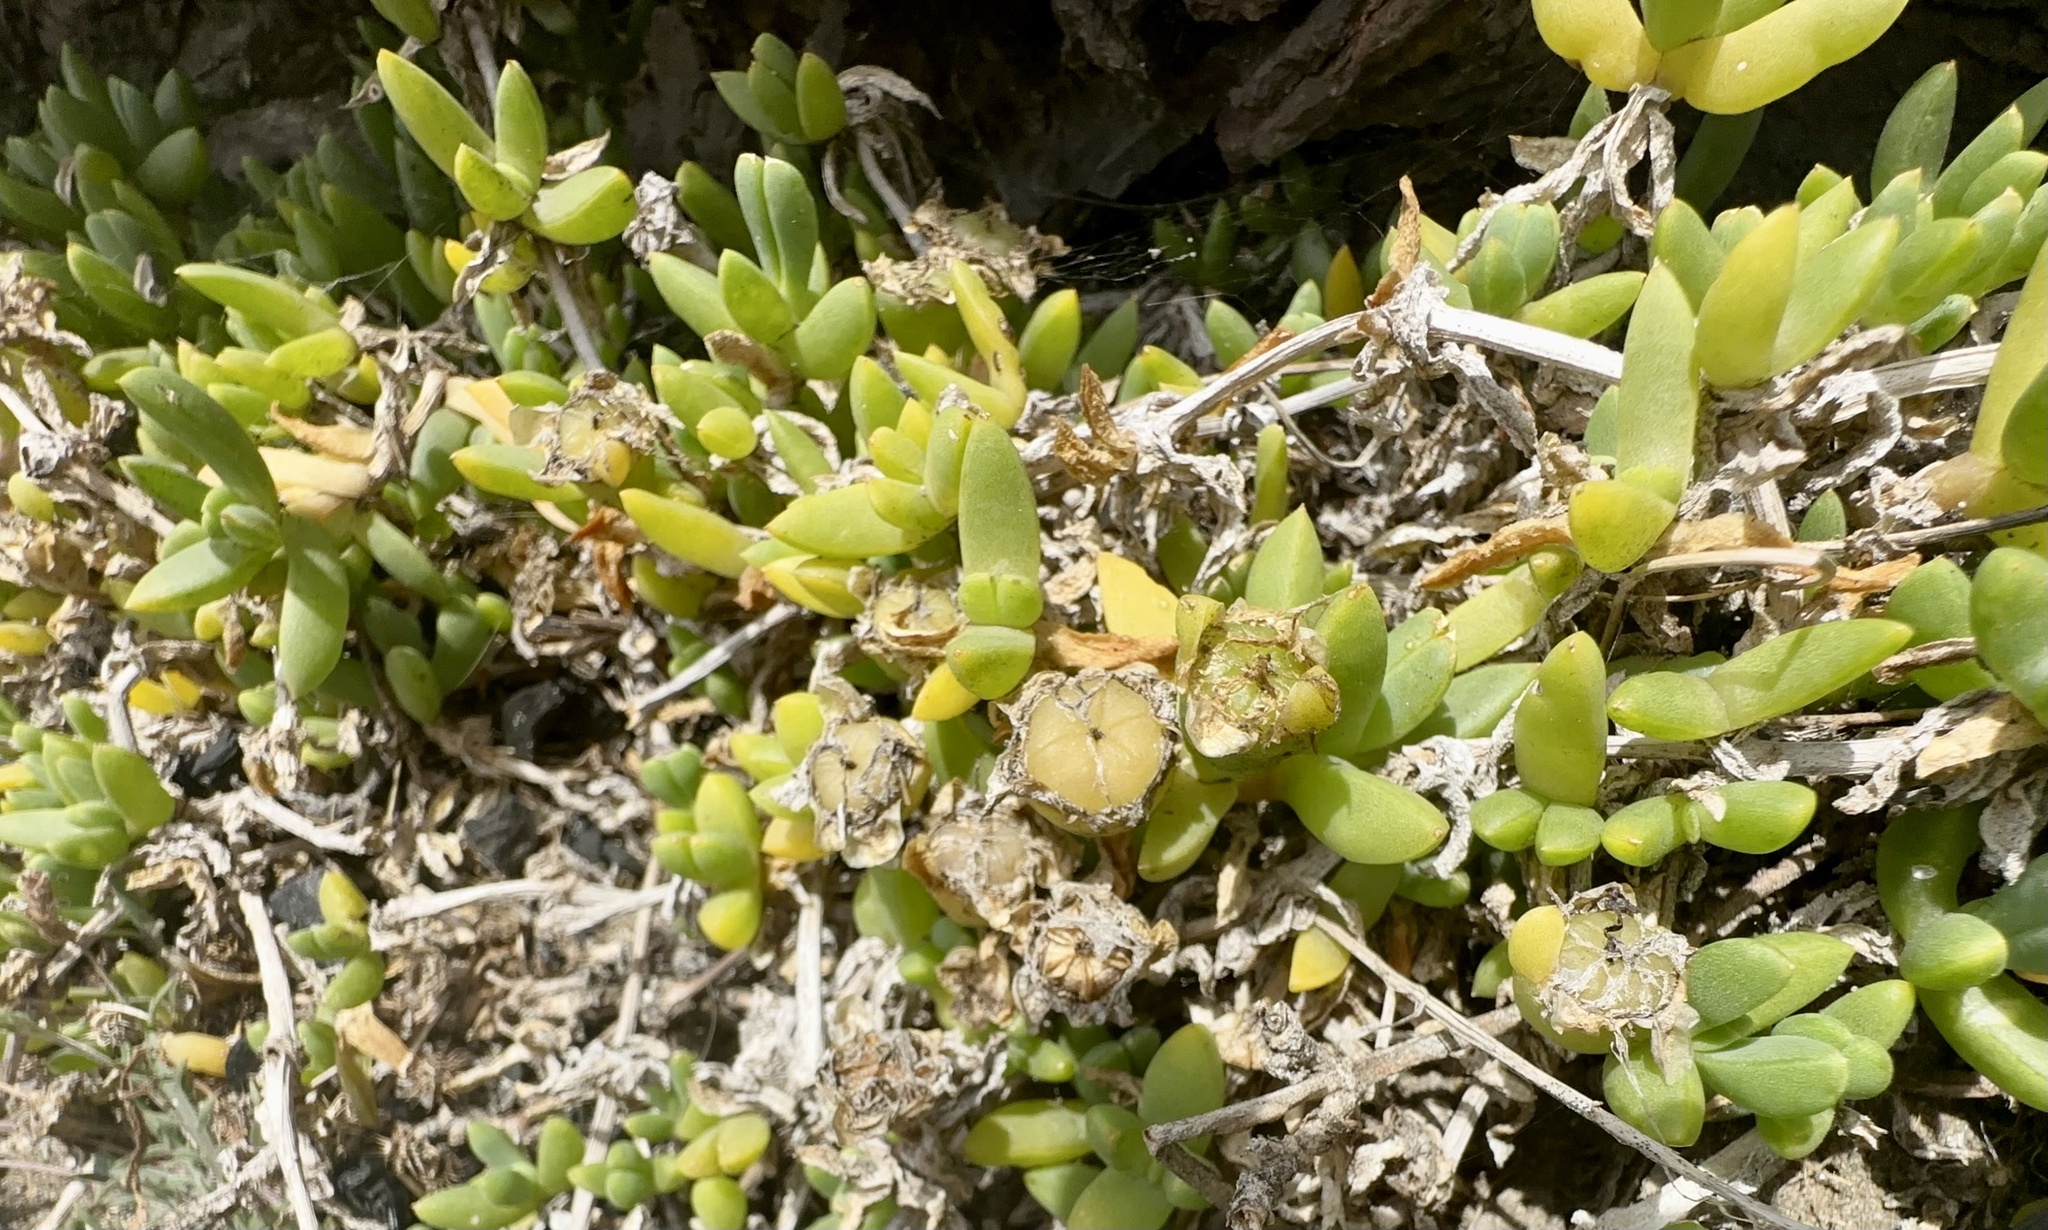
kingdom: Plantae
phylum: Tracheophyta
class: Magnoliopsida
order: Caryophyllales
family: Aizoaceae
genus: Disphyma
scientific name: Disphyma australe
